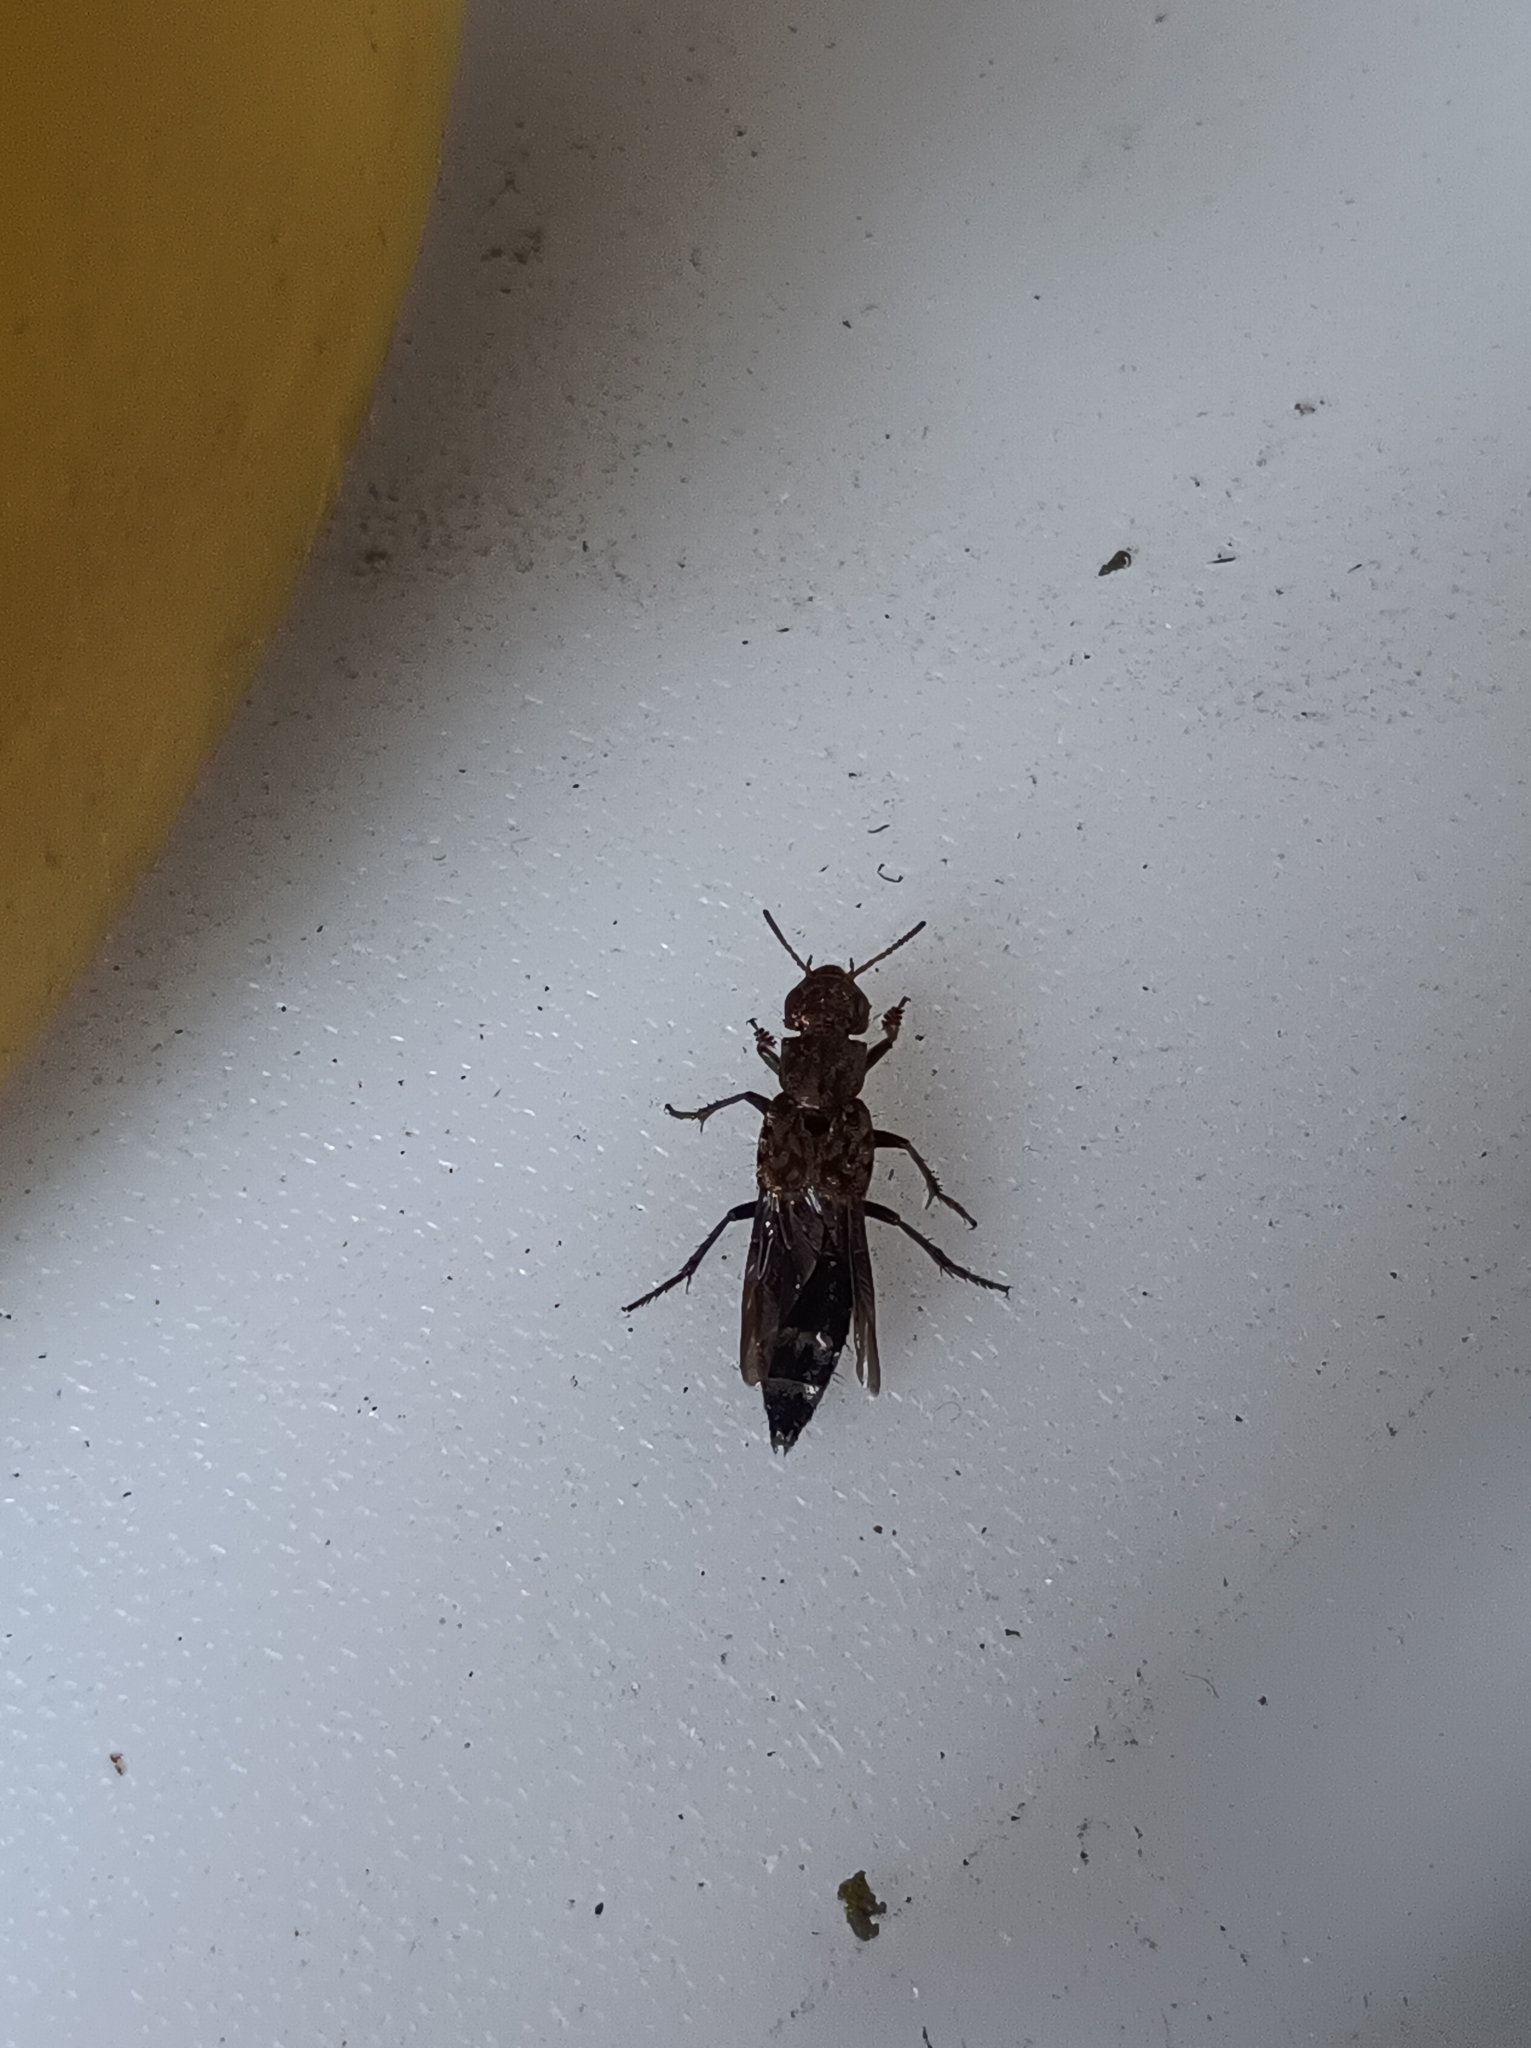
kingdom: Animalia
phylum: Arthropoda
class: Insecta
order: Coleoptera
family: Staphylinidae
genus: Ontholestes
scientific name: Ontholestes murinus
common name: Staph beetle
